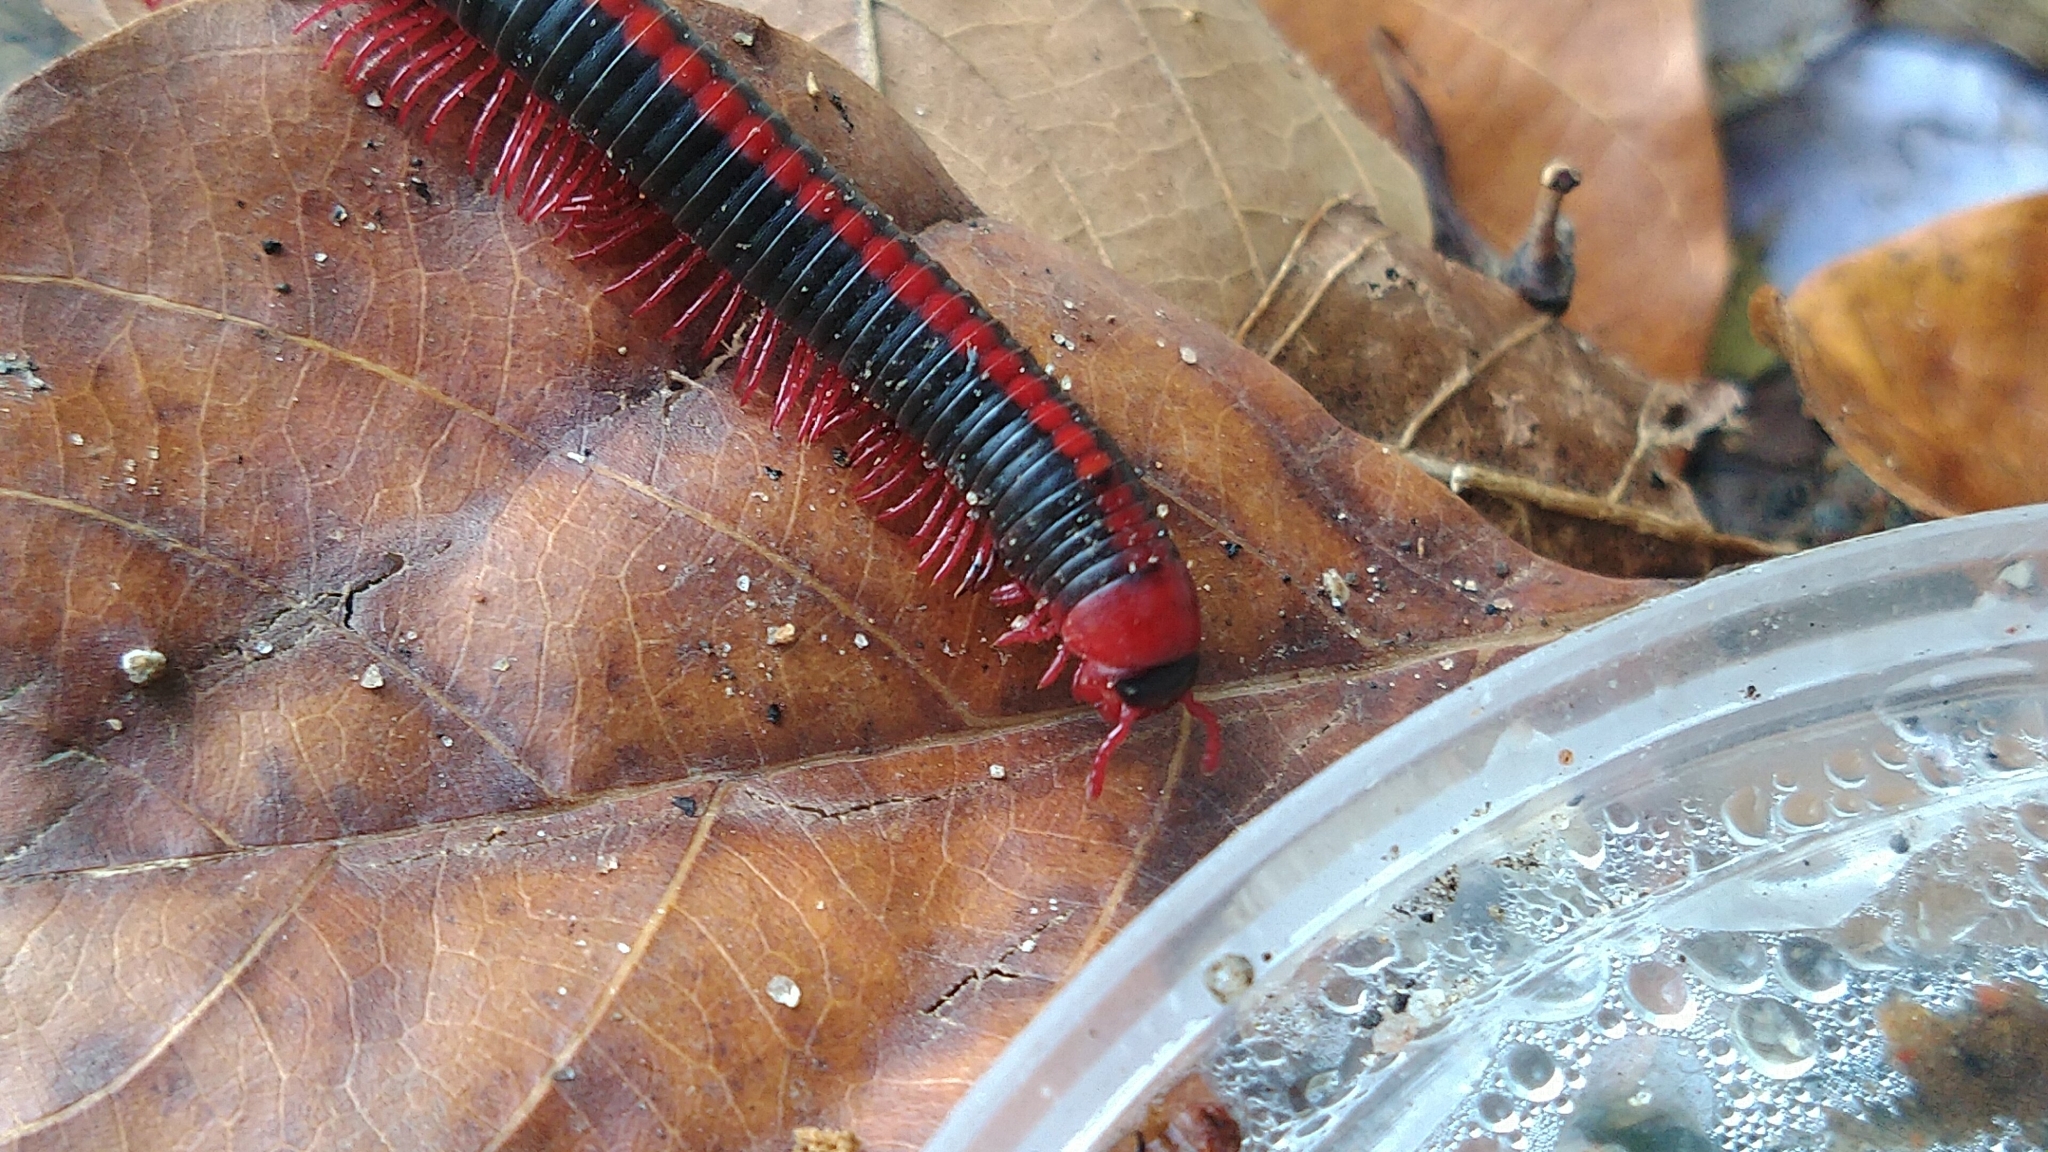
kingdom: Animalia
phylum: Arthropoda
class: Diplopoda
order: Spirobolida
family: Pachybolidae
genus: Xenobolus
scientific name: Xenobolus carnifex
